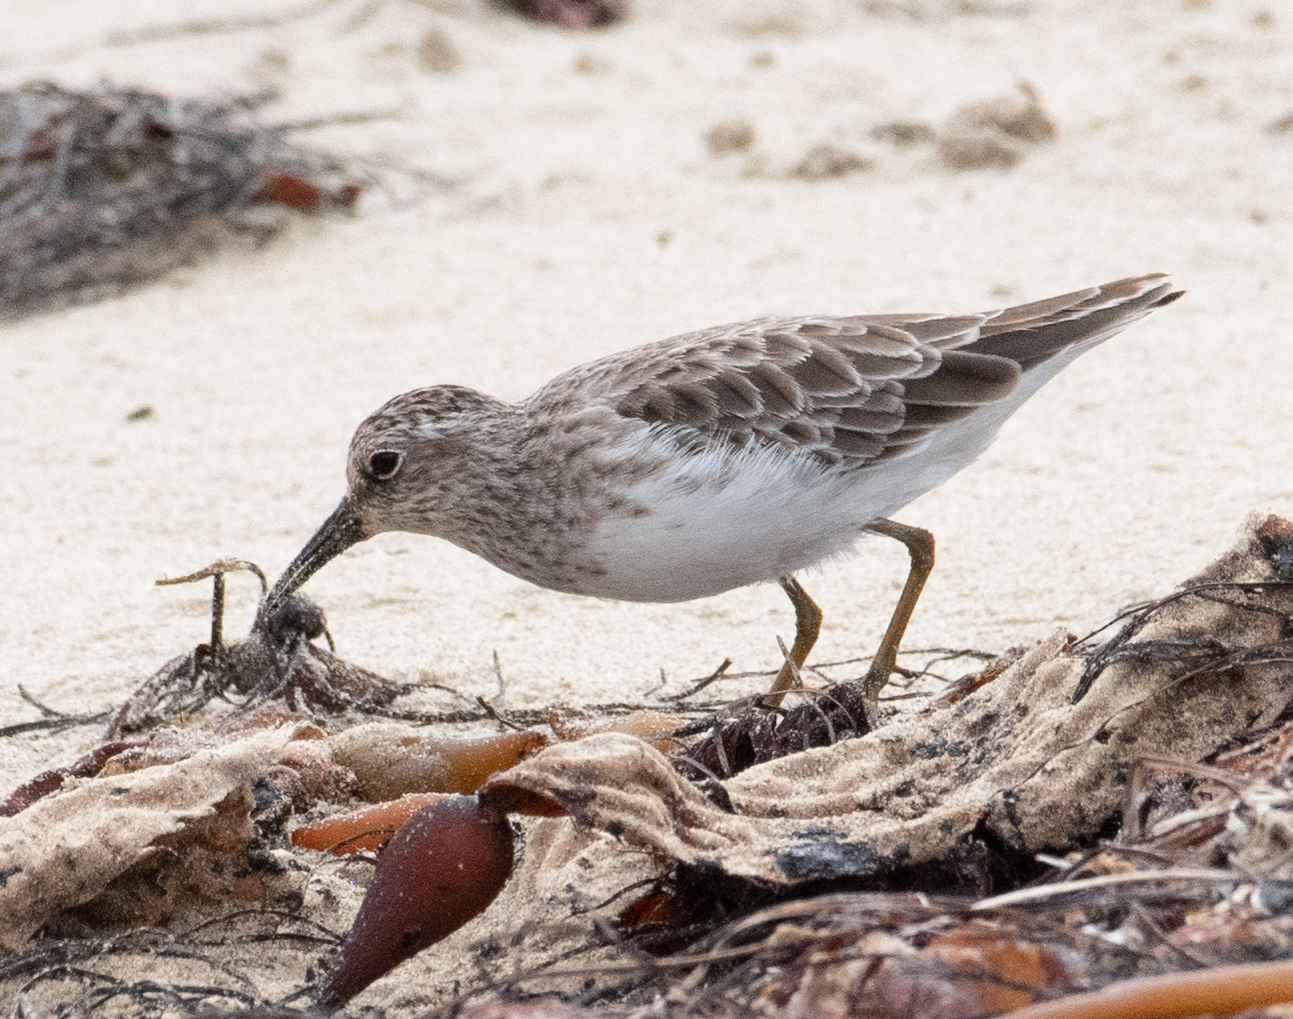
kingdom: Animalia
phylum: Chordata
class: Aves
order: Charadriiformes
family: Scolopacidae
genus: Calidris
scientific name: Calidris minutilla
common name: Least sandpiper
